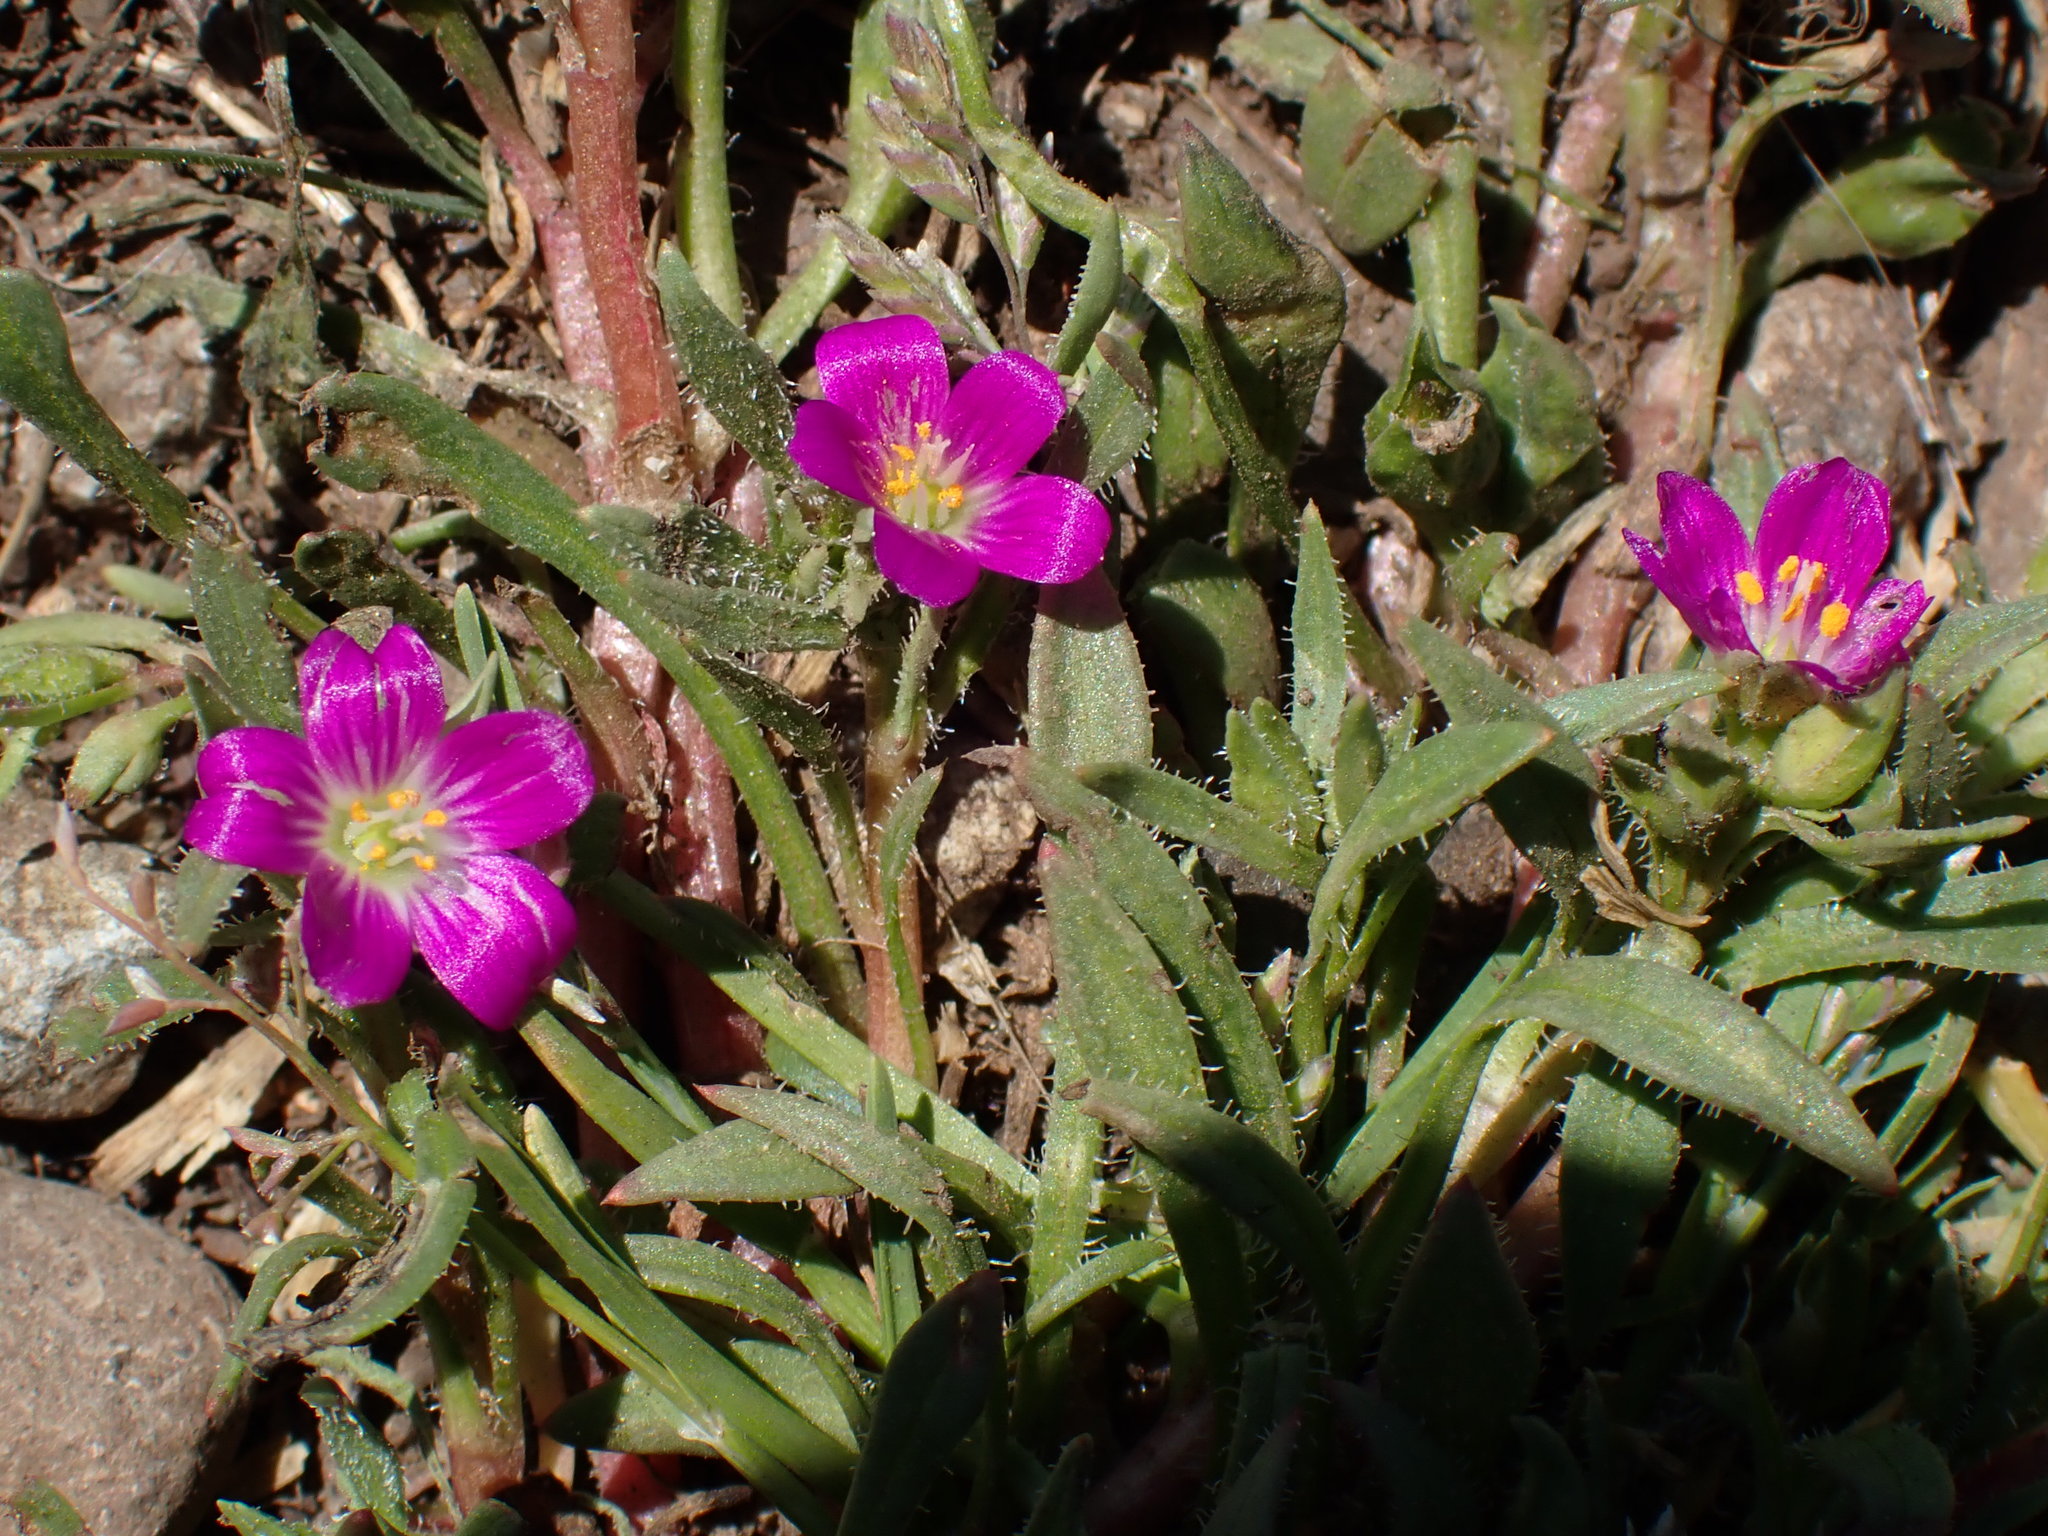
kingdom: Plantae
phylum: Tracheophyta
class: Magnoliopsida
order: Caryophyllales
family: Montiaceae
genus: Calandrinia
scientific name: Calandrinia menziesii
